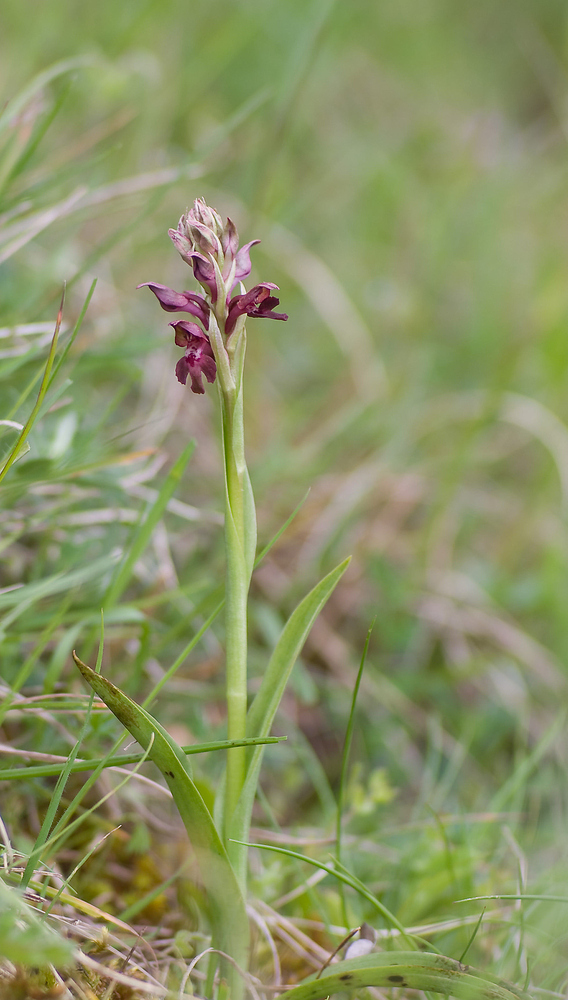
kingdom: Plantae
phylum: Tracheophyta
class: Liliopsida
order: Asparagales
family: Orchidaceae
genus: Anacamptis
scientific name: Anacamptis coriophora
